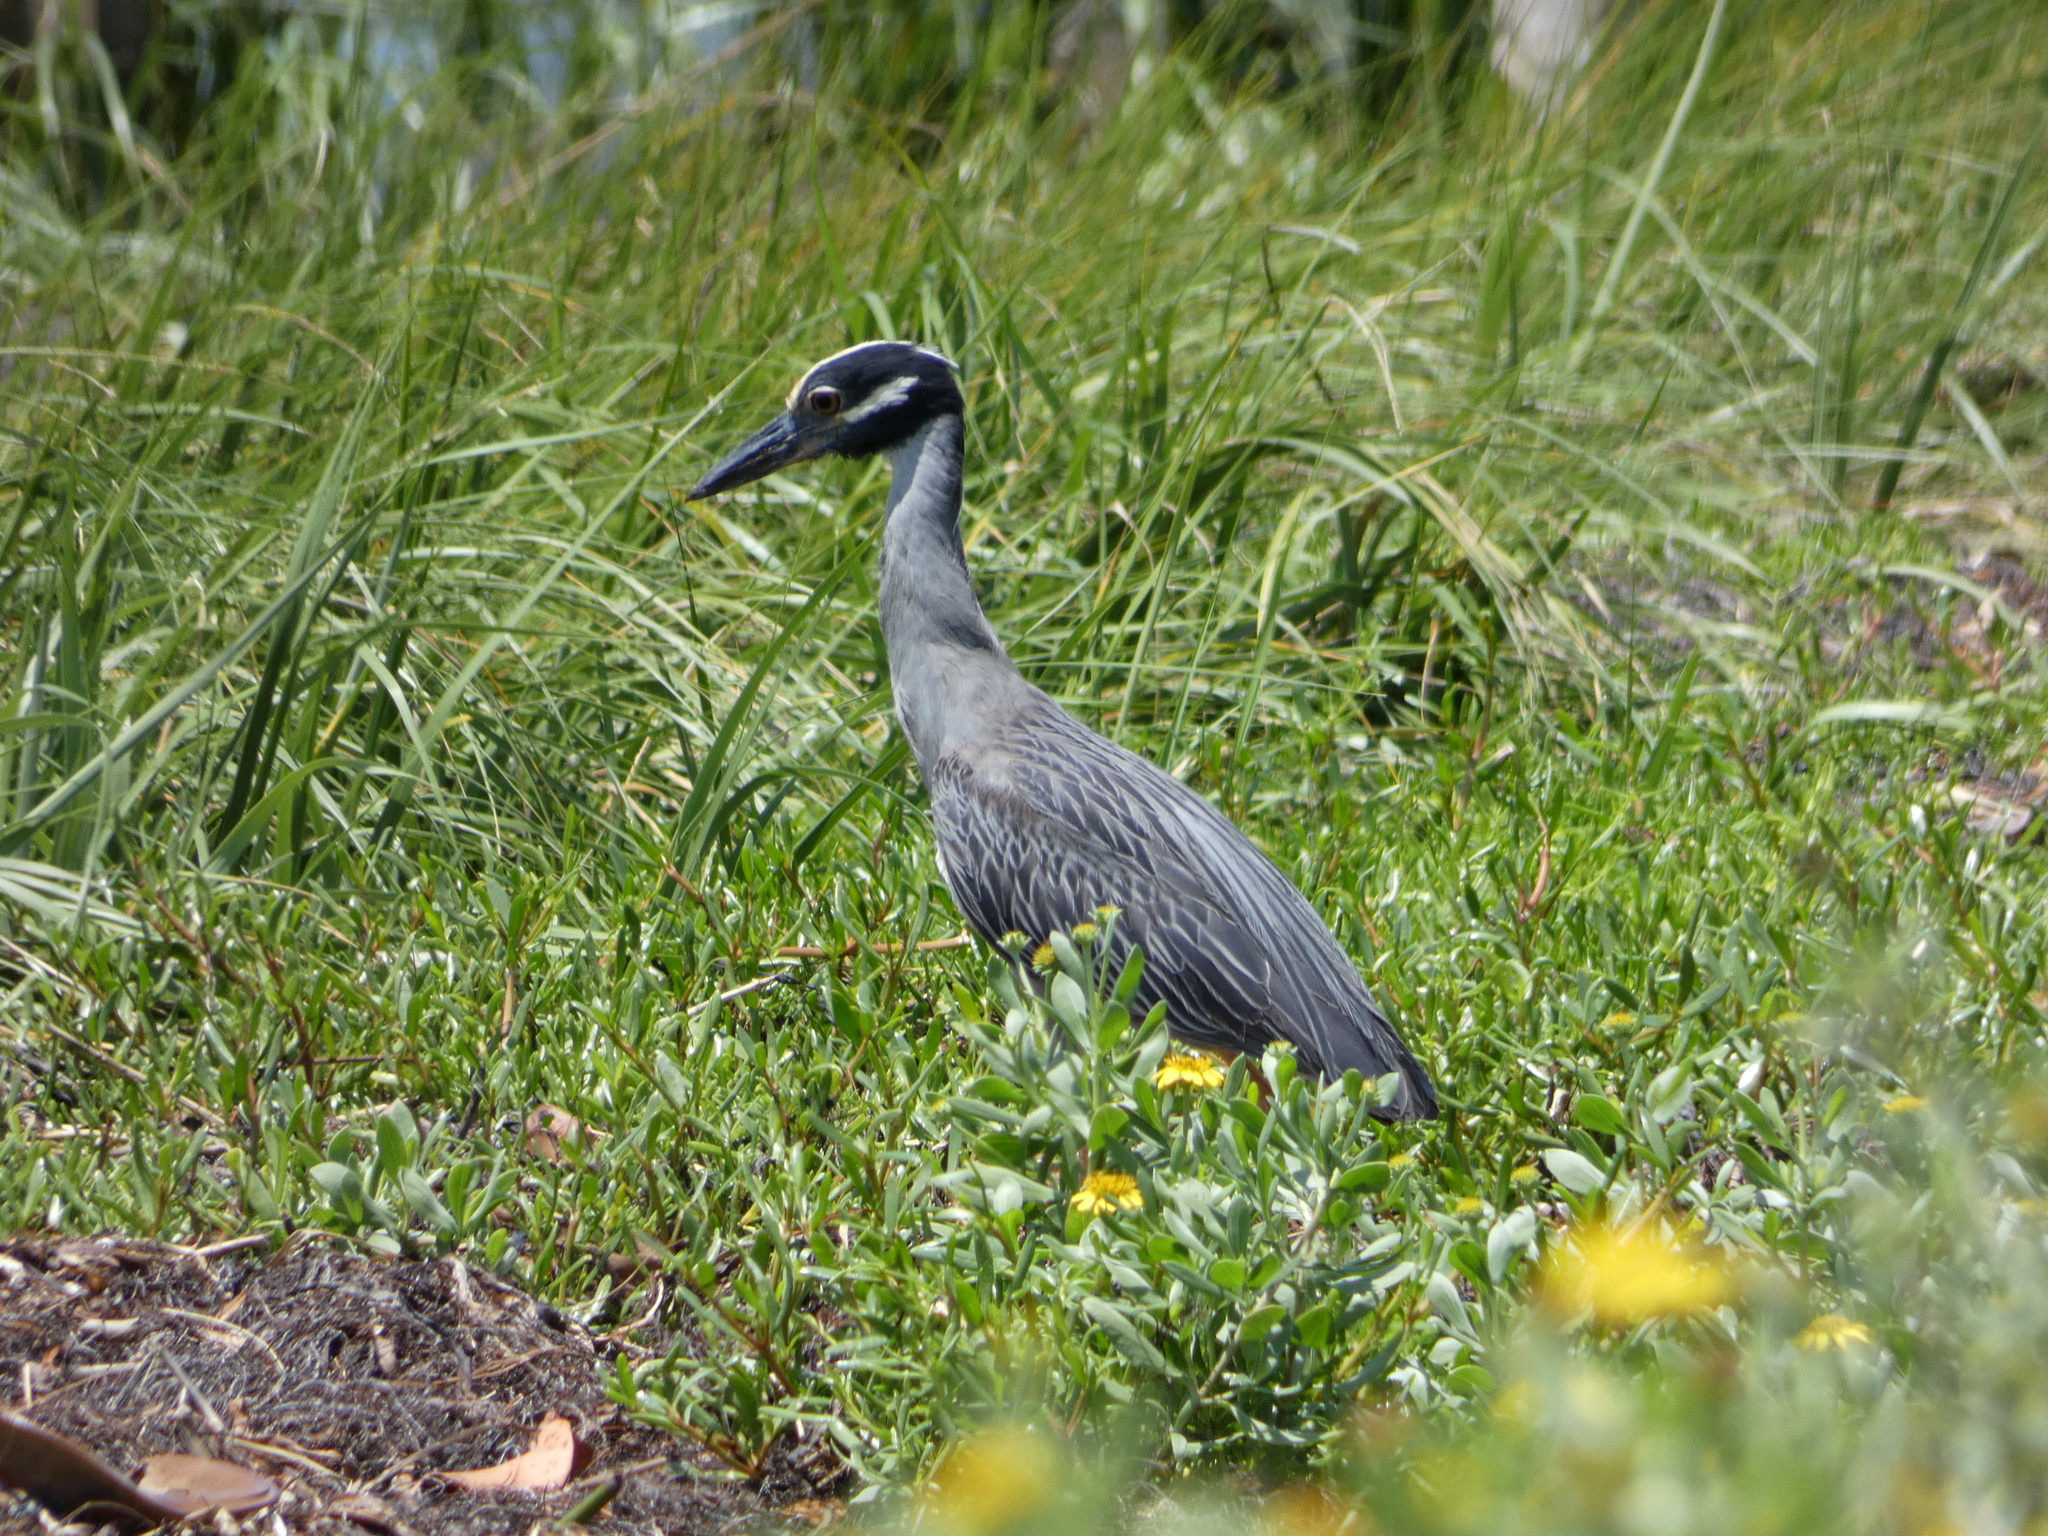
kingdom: Animalia
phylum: Chordata
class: Aves
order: Pelecaniformes
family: Ardeidae
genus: Nyctanassa
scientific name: Nyctanassa violacea
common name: Yellow-crowned night heron
